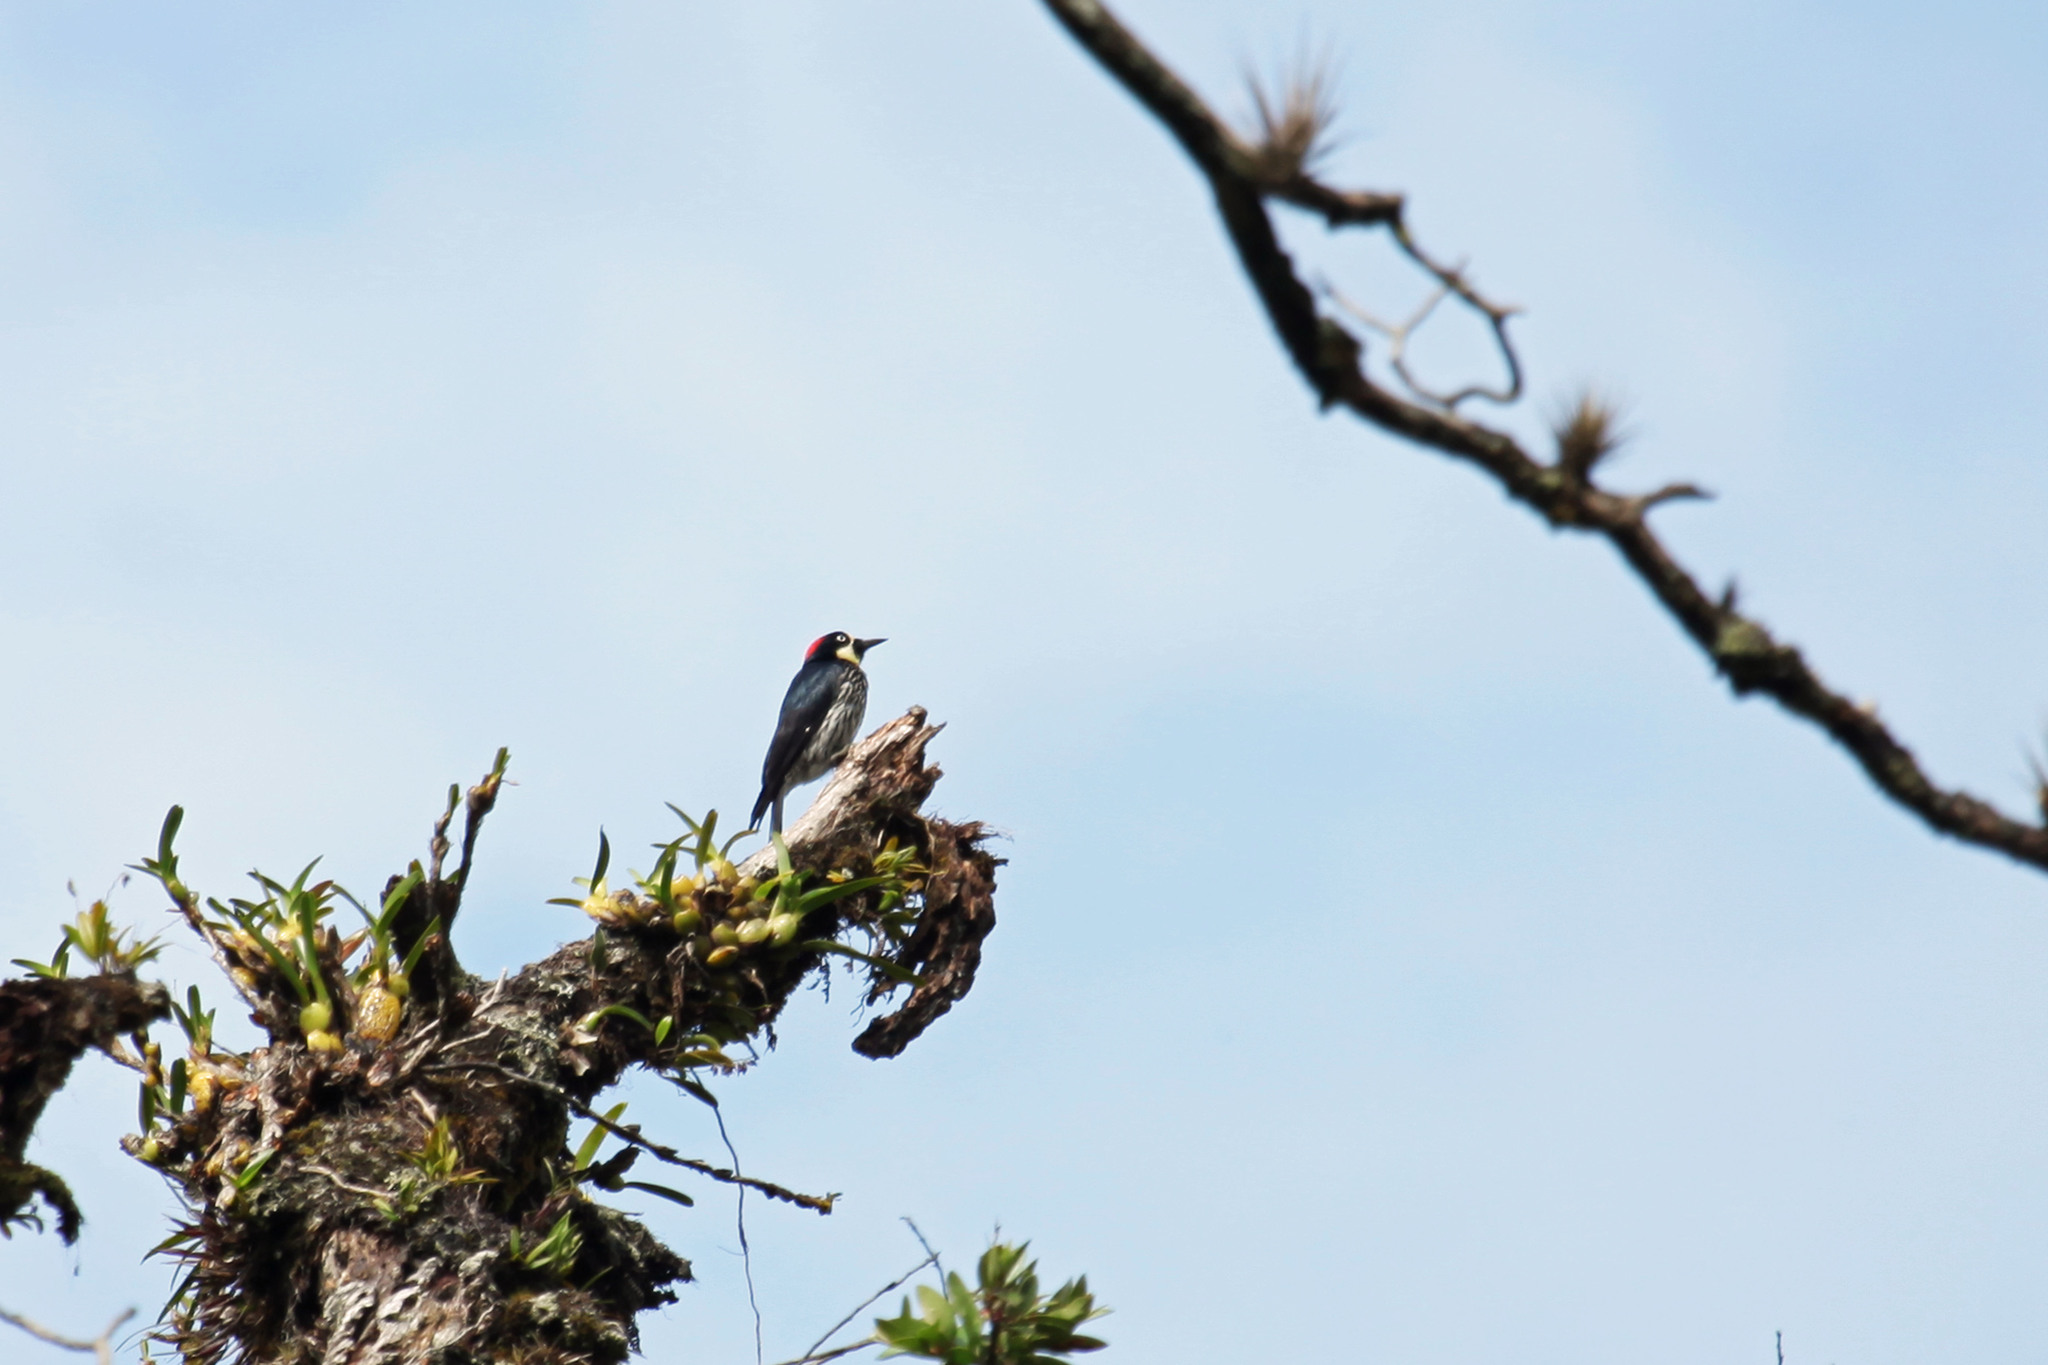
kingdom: Animalia
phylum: Chordata
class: Aves
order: Piciformes
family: Picidae
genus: Melanerpes
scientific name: Melanerpes formicivorus
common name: Acorn woodpecker
